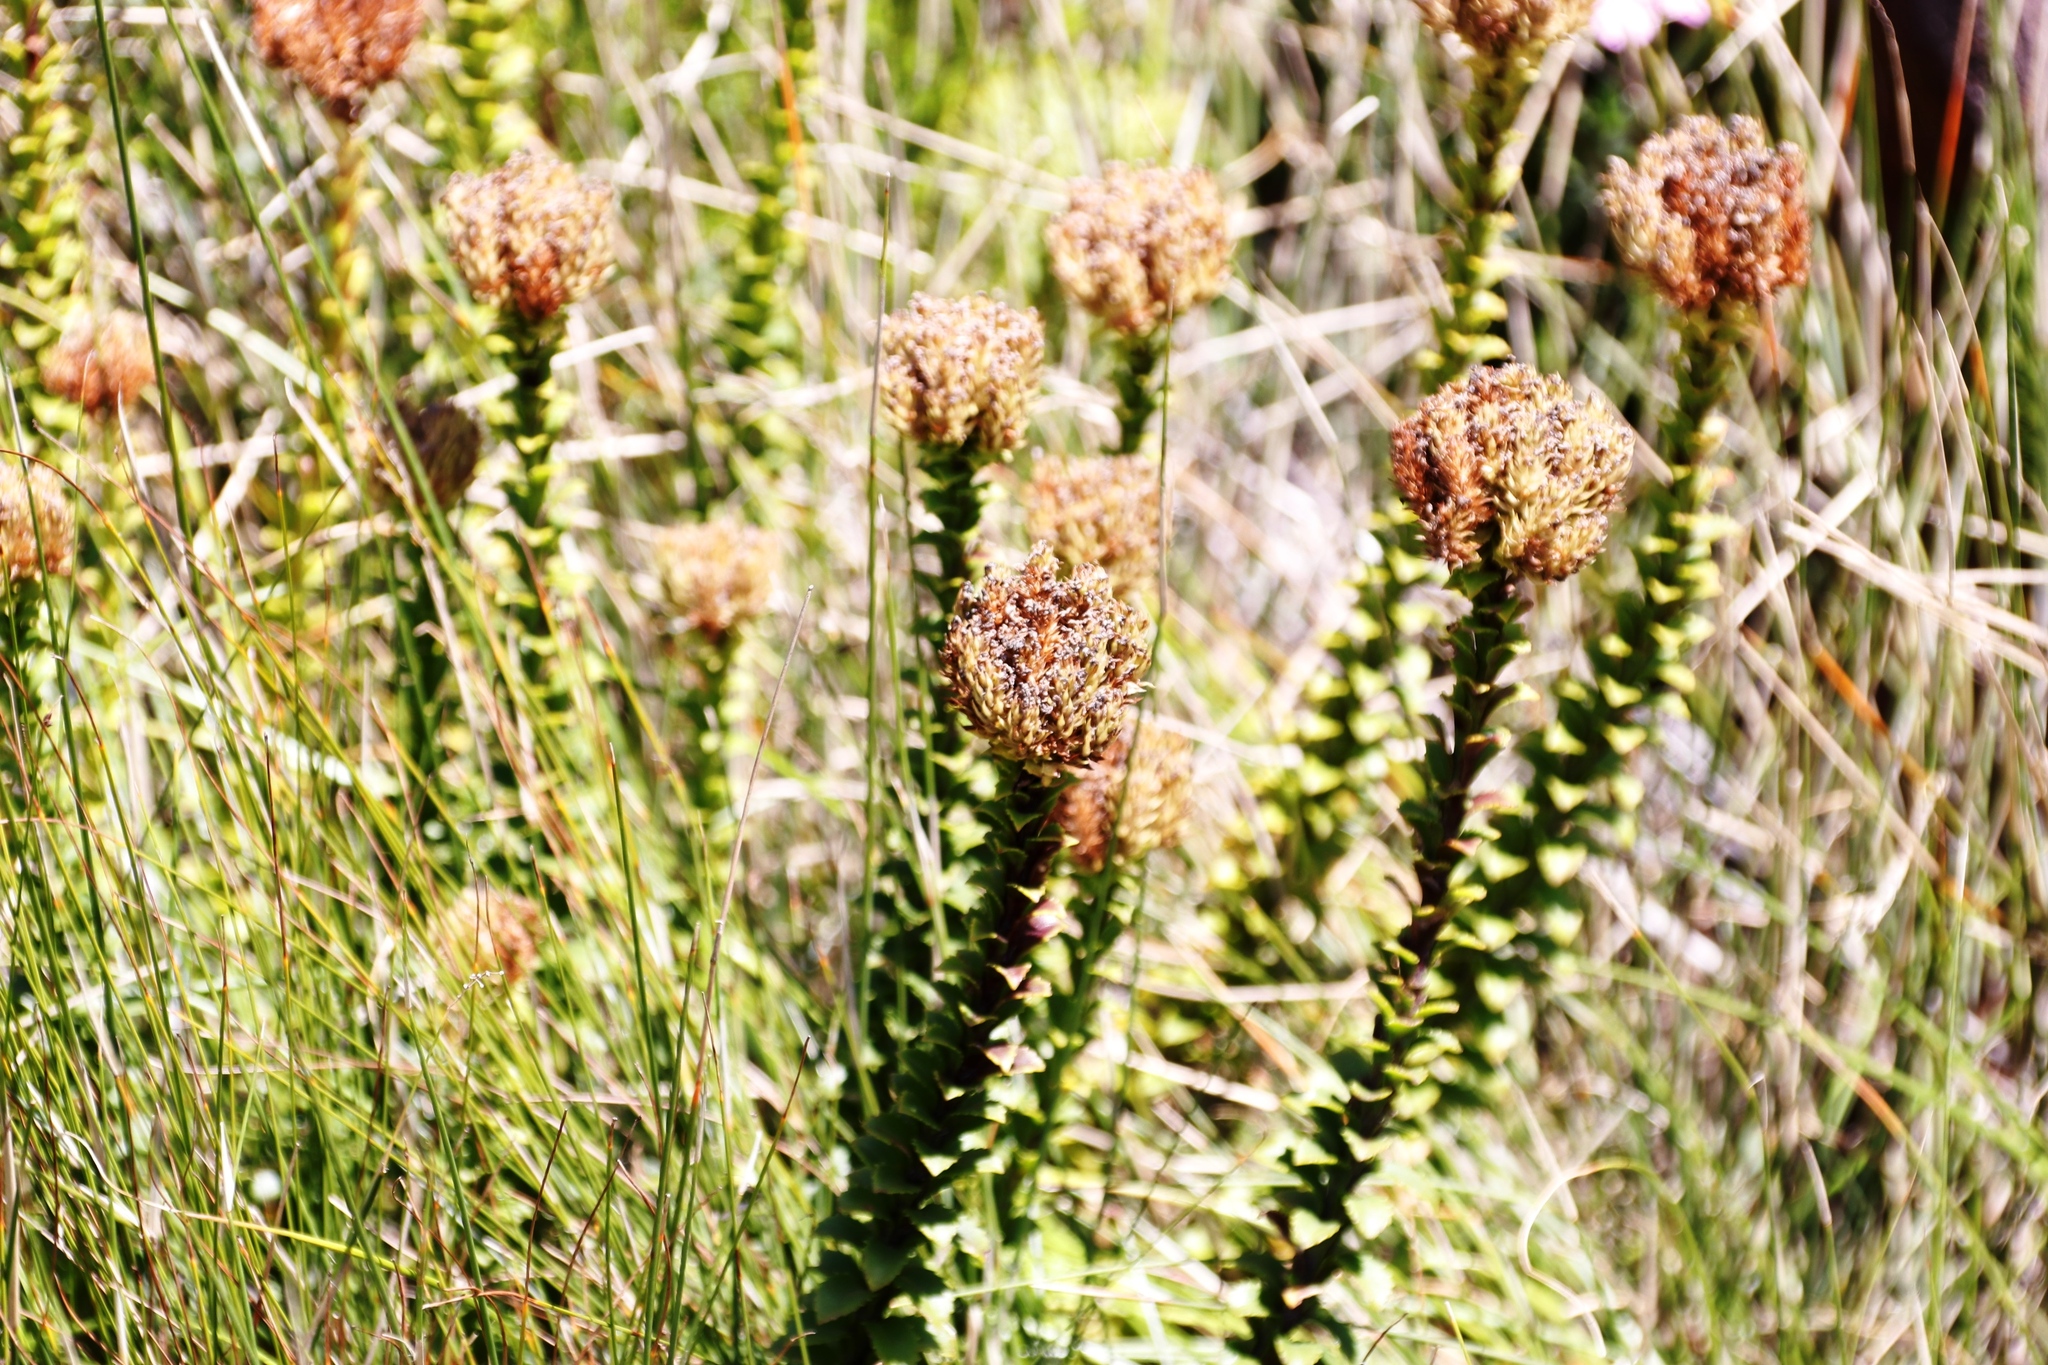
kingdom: Plantae
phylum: Tracheophyta
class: Magnoliopsida
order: Lamiales
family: Scrophulariaceae
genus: Pseudoselago
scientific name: Pseudoselago serrata
